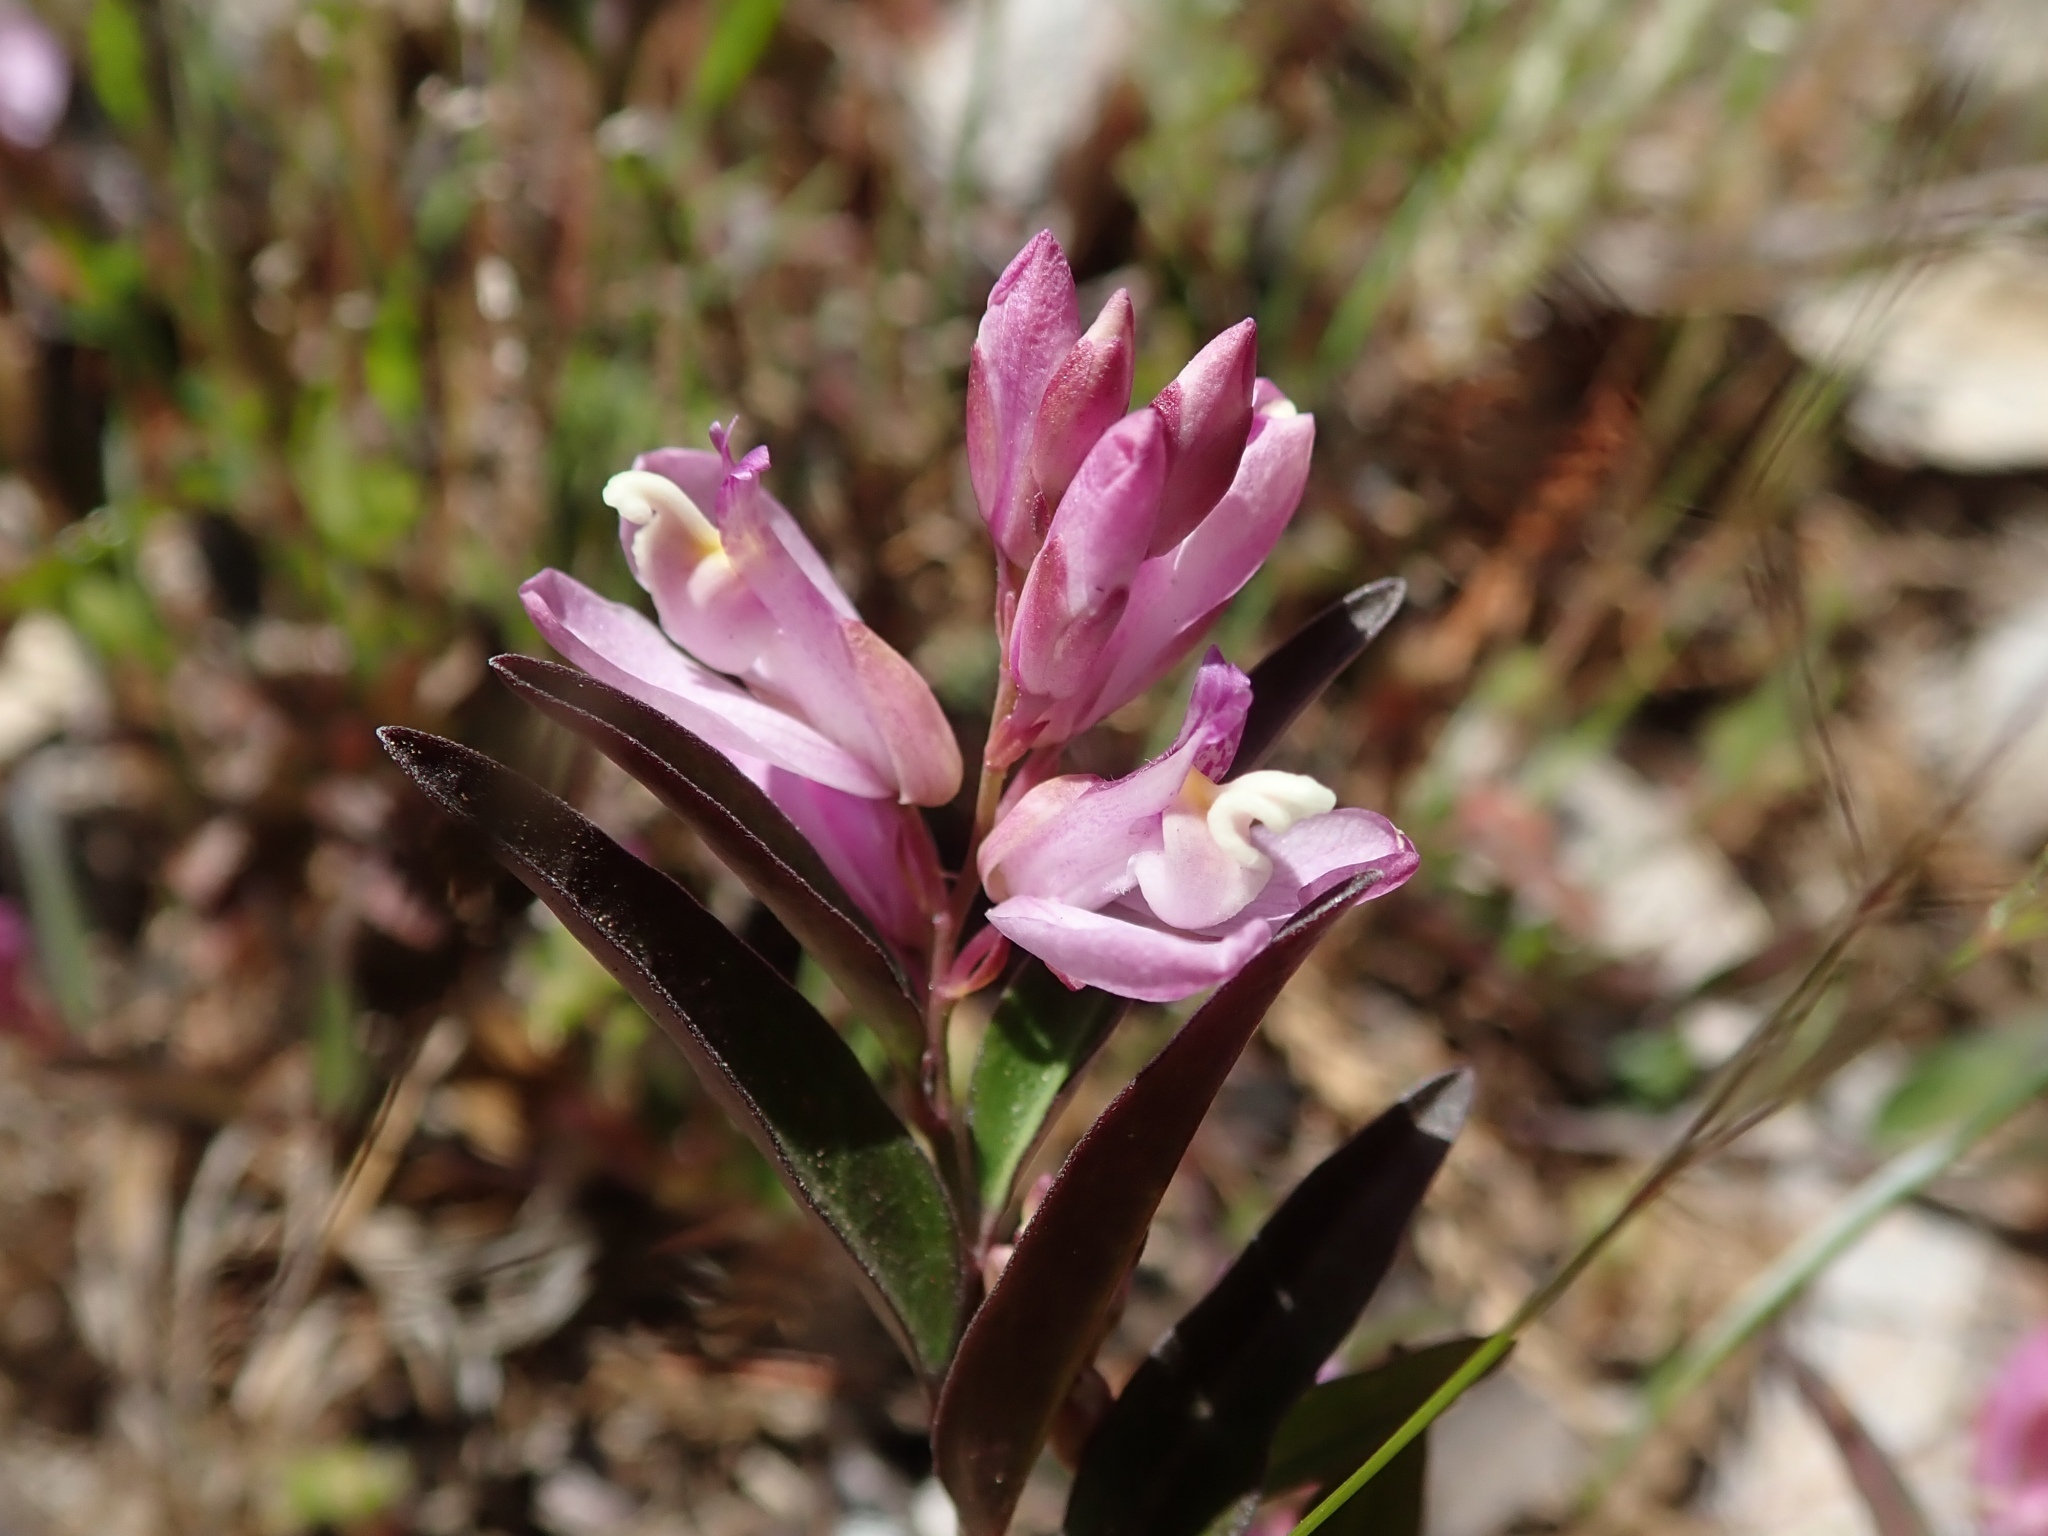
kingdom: Plantae
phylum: Tracheophyta
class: Magnoliopsida
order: Fabales
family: Polygalaceae
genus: Rhinotropis
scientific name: Rhinotropis californica
